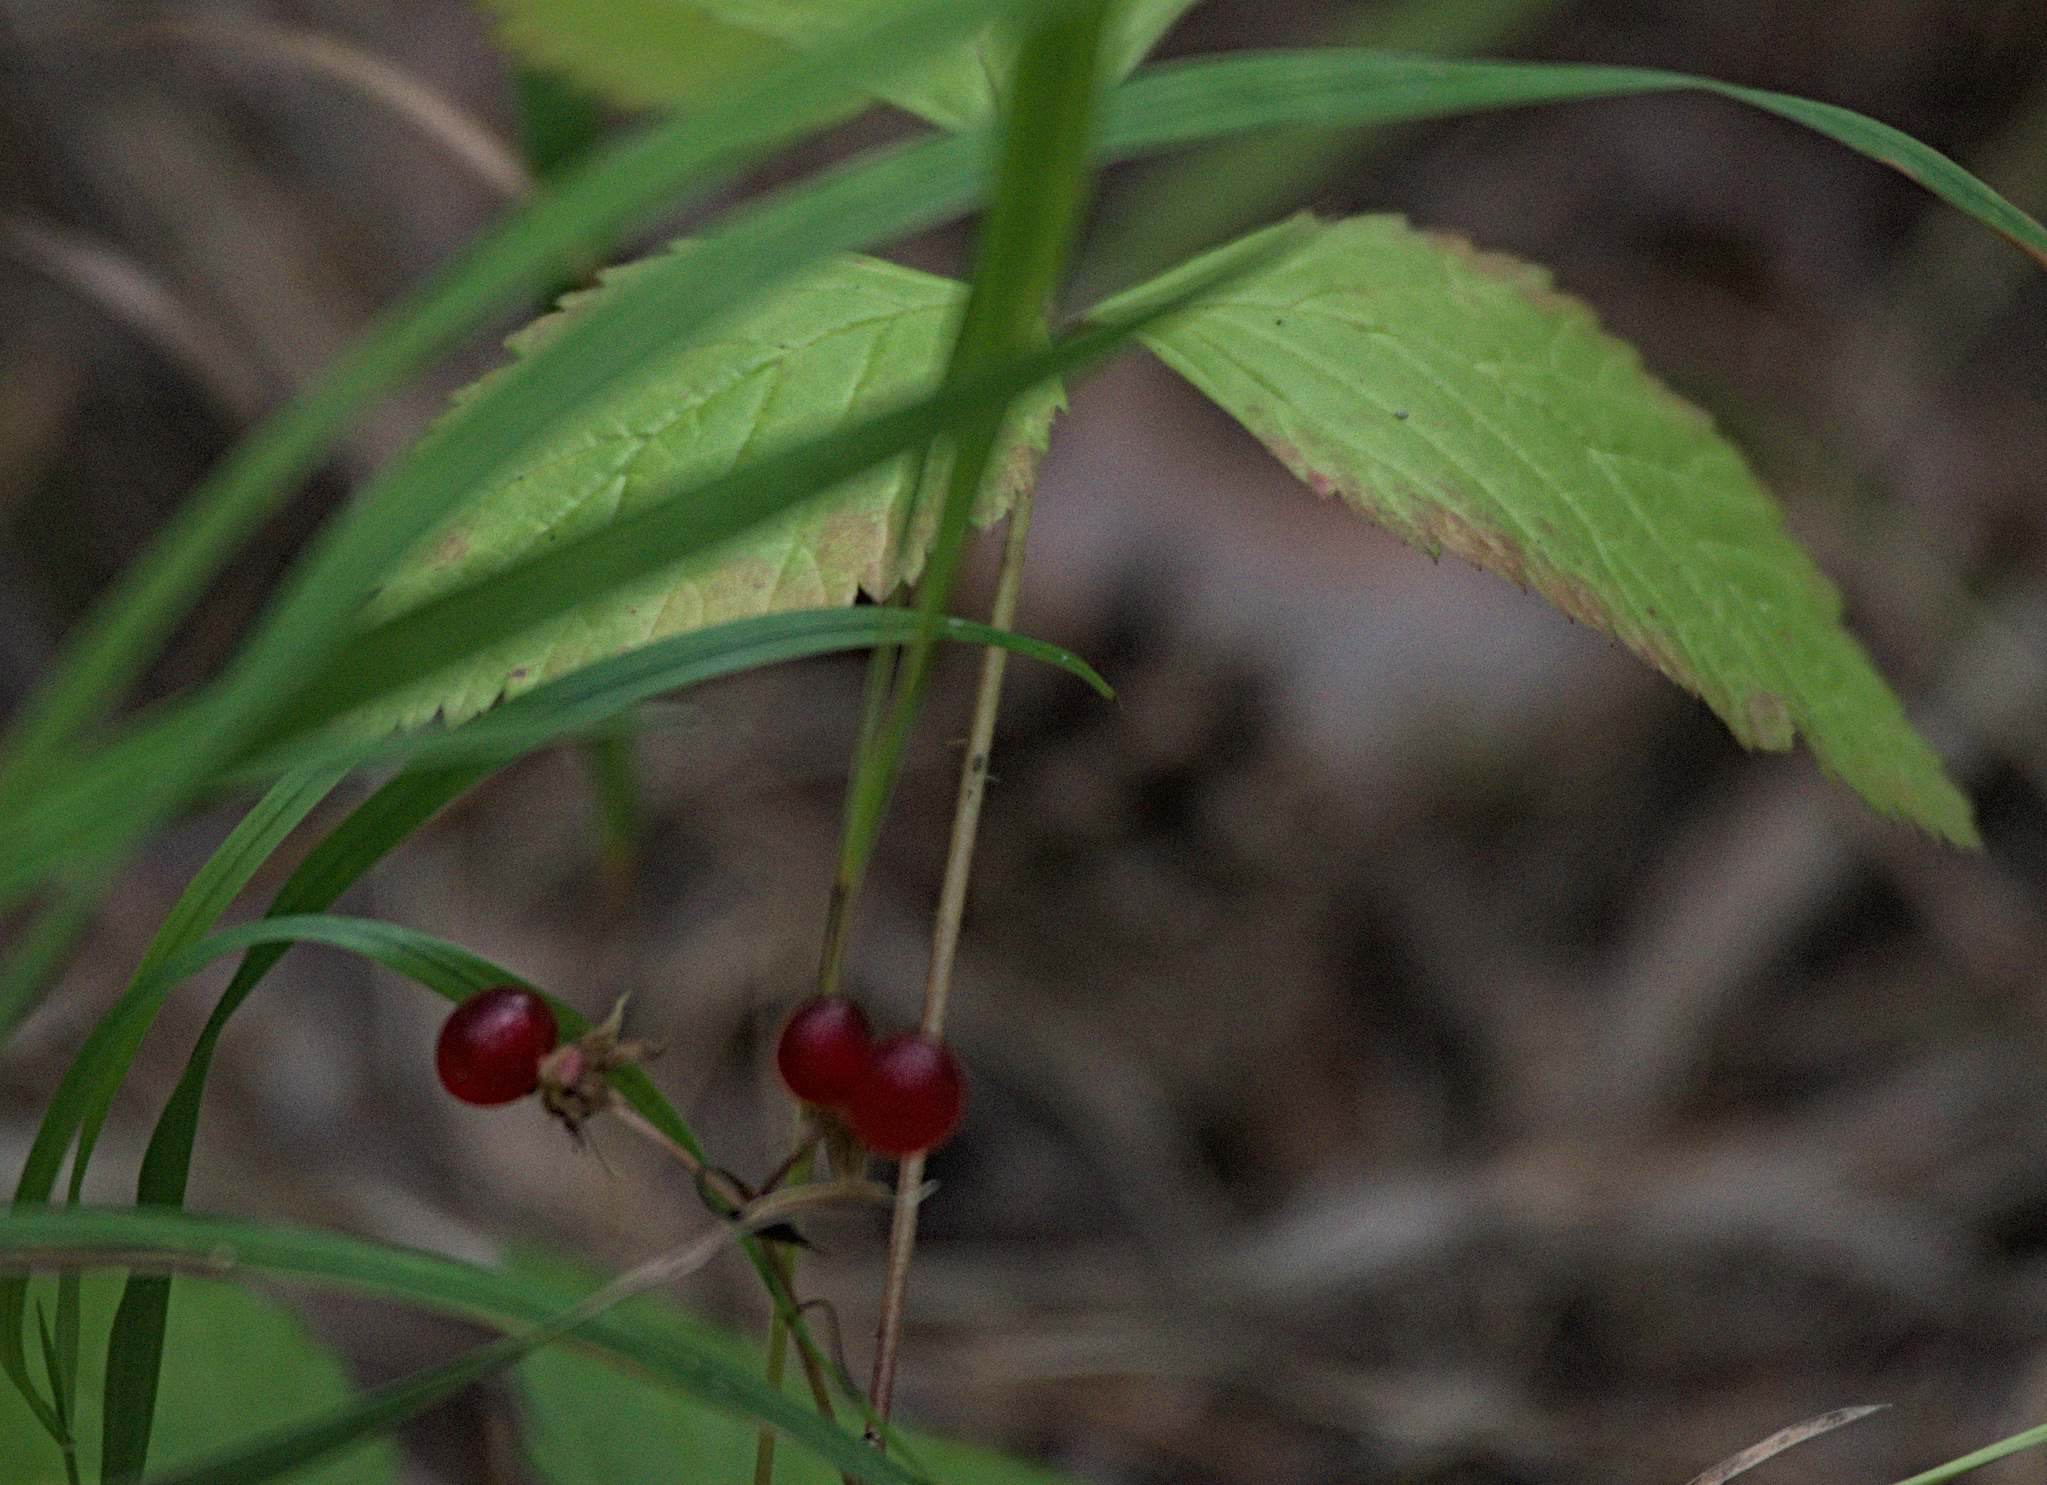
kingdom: Plantae
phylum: Tracheophyta
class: Magnoliopsida
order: Rosales
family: Rosaceae
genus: Rubus
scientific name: Rubus saxatilis
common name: Stone bramble
